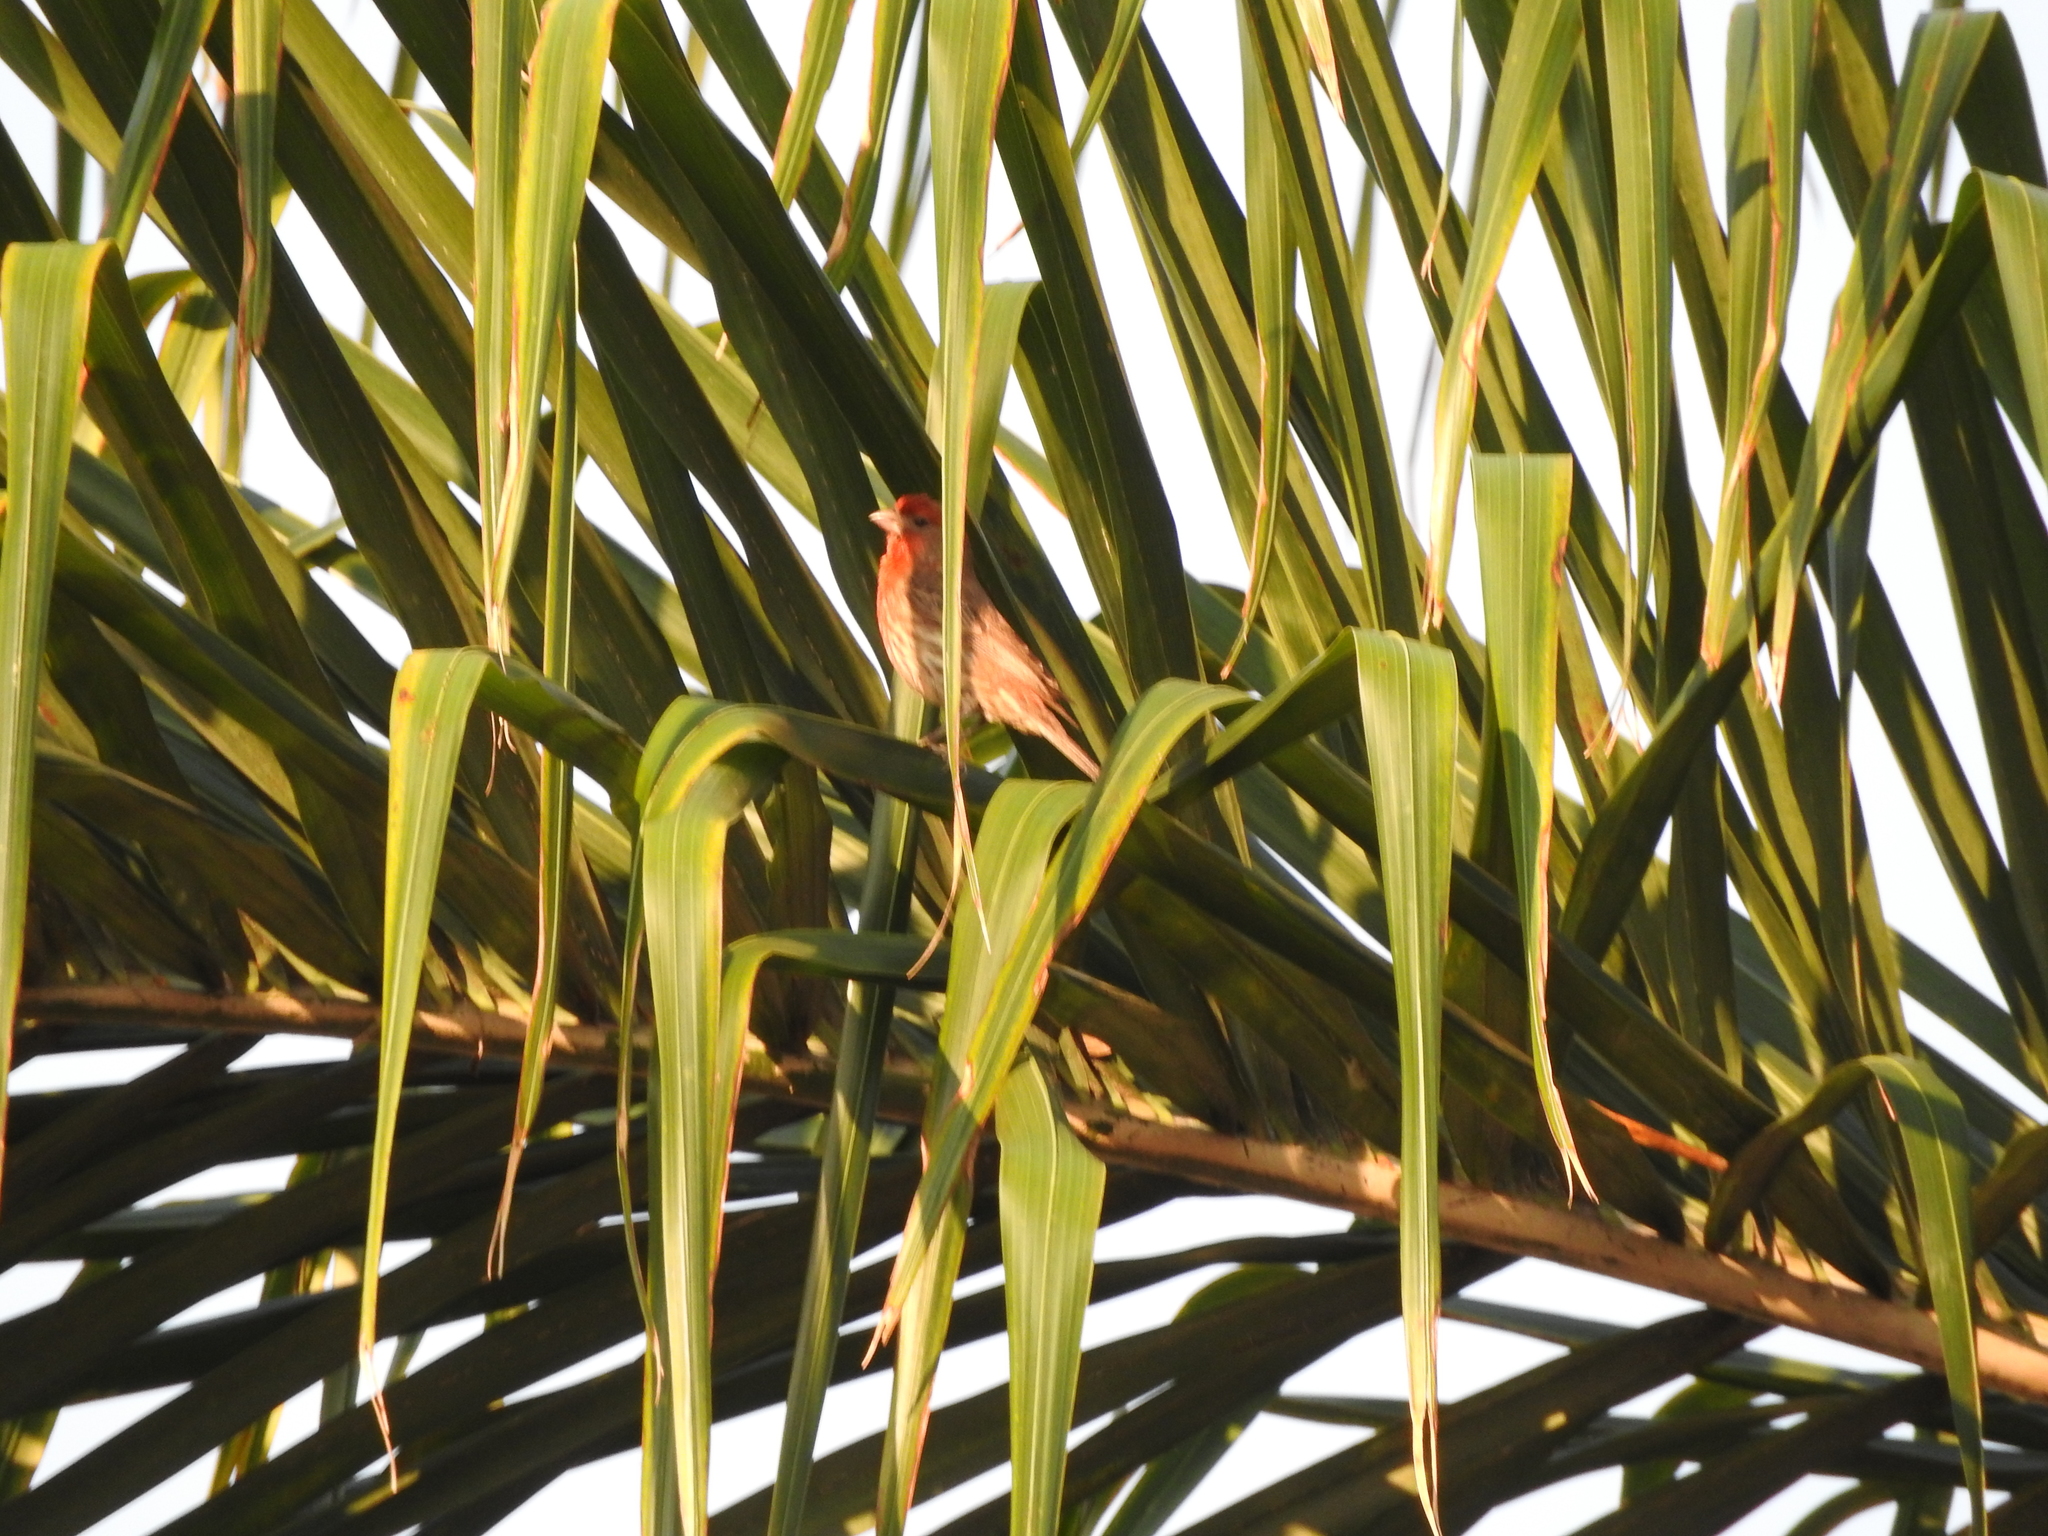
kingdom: Animalia
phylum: Chordata
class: Aves
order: Passeriformes
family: Fringillidae
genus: Haemorhous
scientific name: Haemorhous mexicanus
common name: House finch
